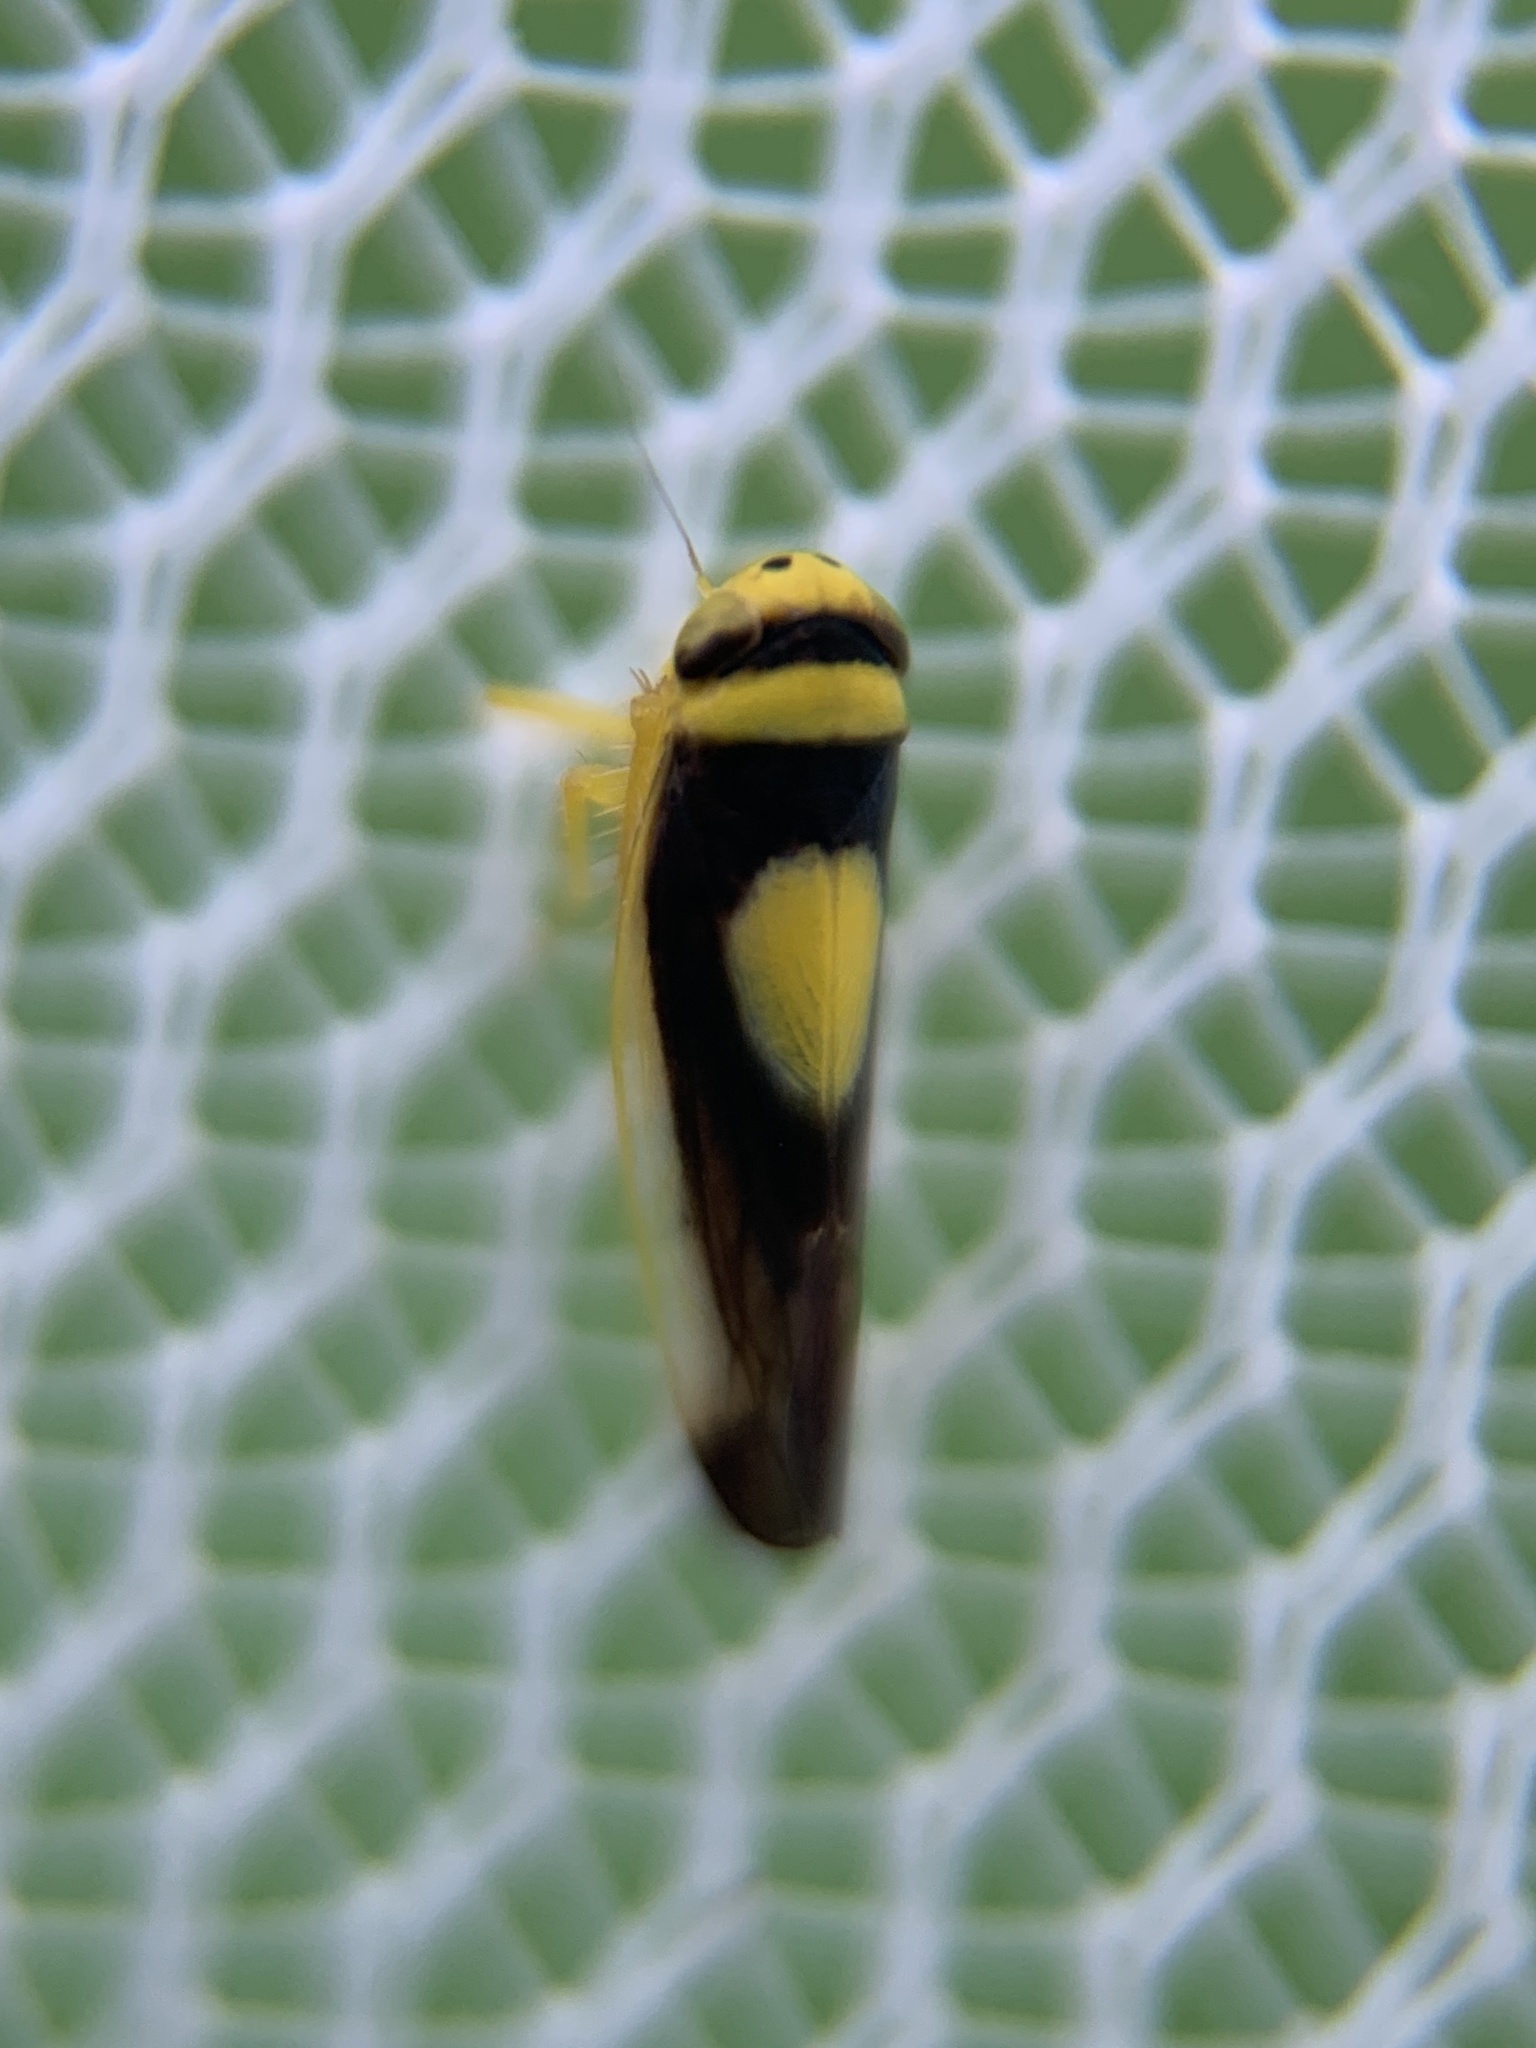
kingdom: Animalia
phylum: Arthropoda
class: Insecta
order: Hemiptera
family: Cicadellidae
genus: Colladonus
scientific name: Colladonus clitellarius
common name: The saddleback leafhopper
